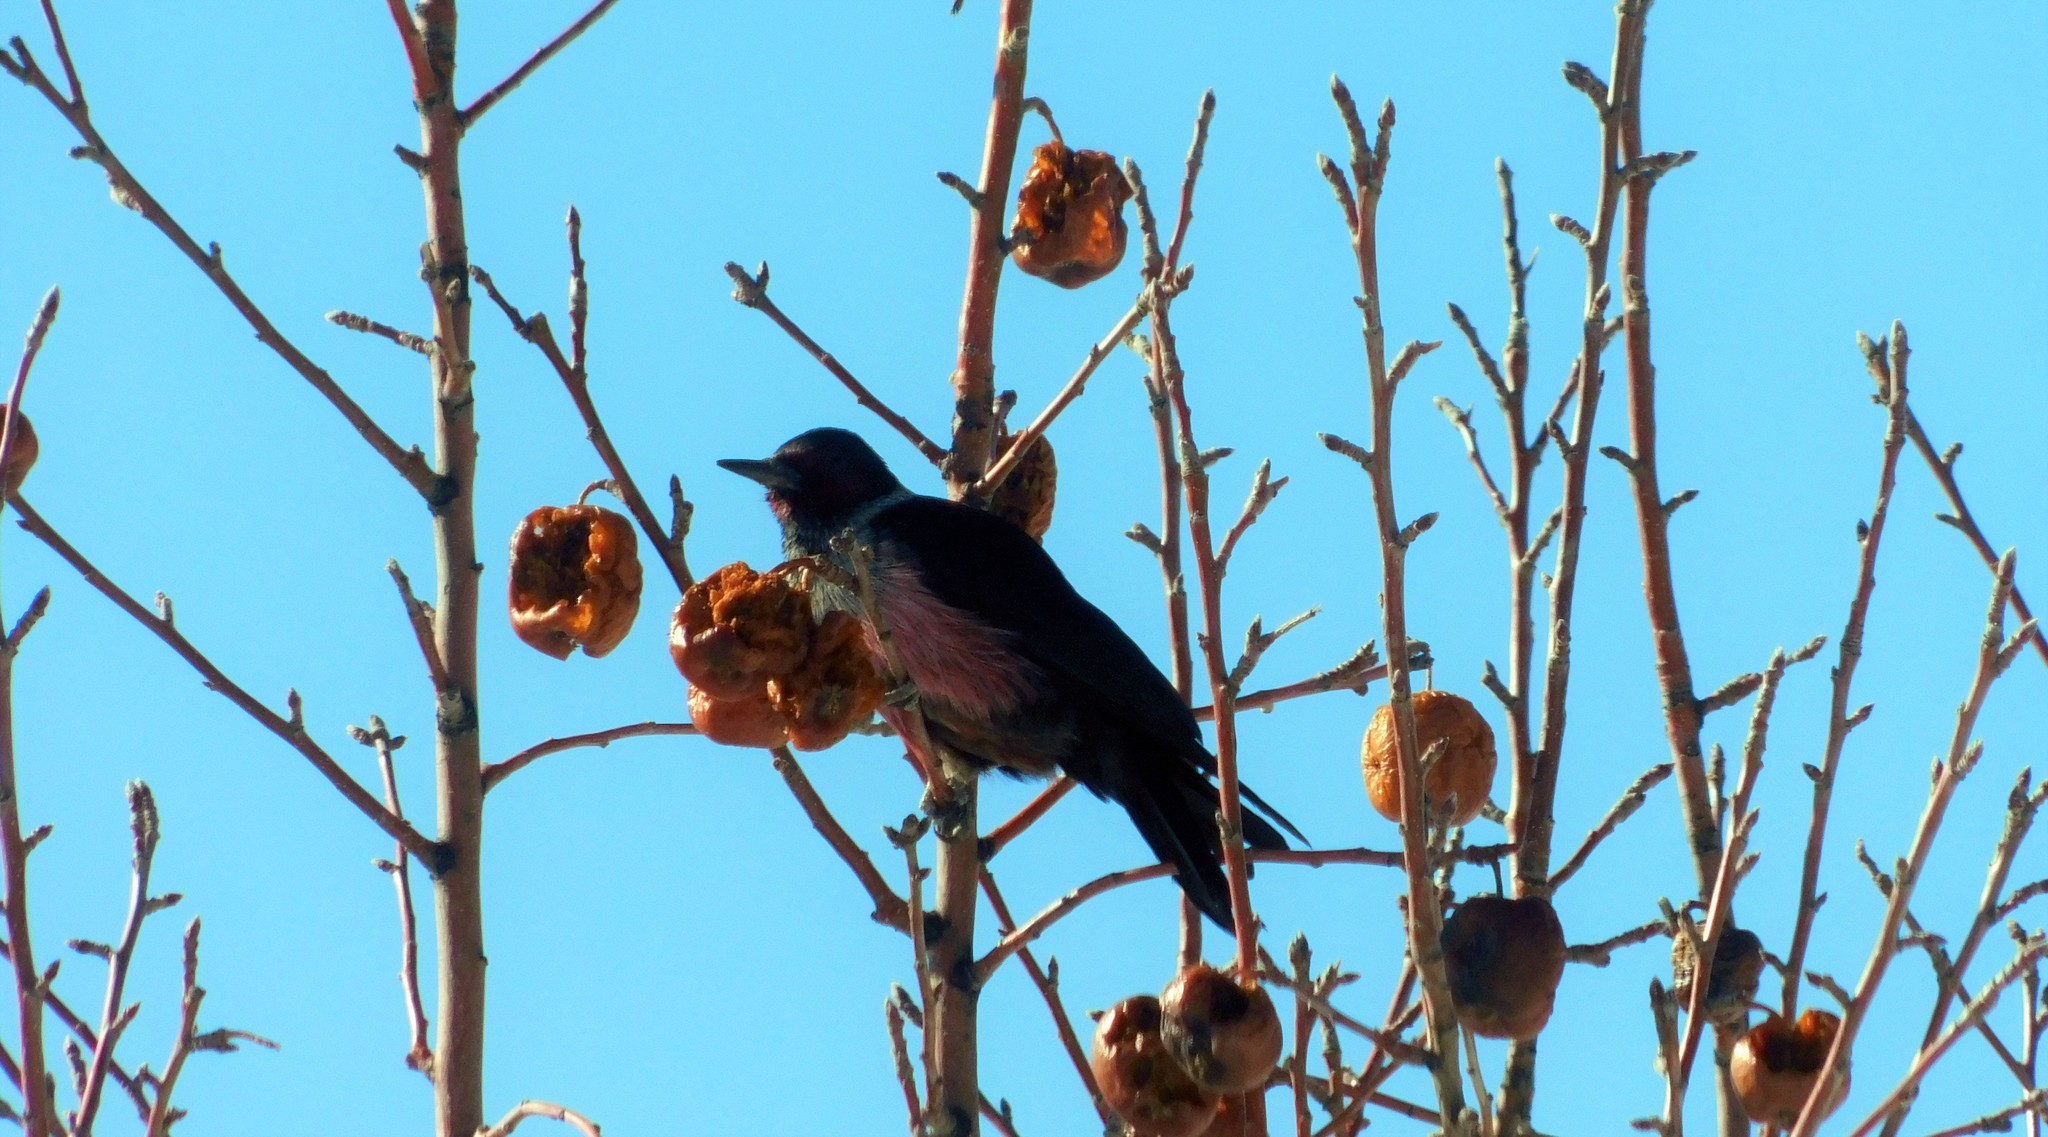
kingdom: Animalia
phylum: Chordata
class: Aves
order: Piciformes
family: Picidae
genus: Melanerpes
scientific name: Melanerpes lewis
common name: Lewis's woodpecker
